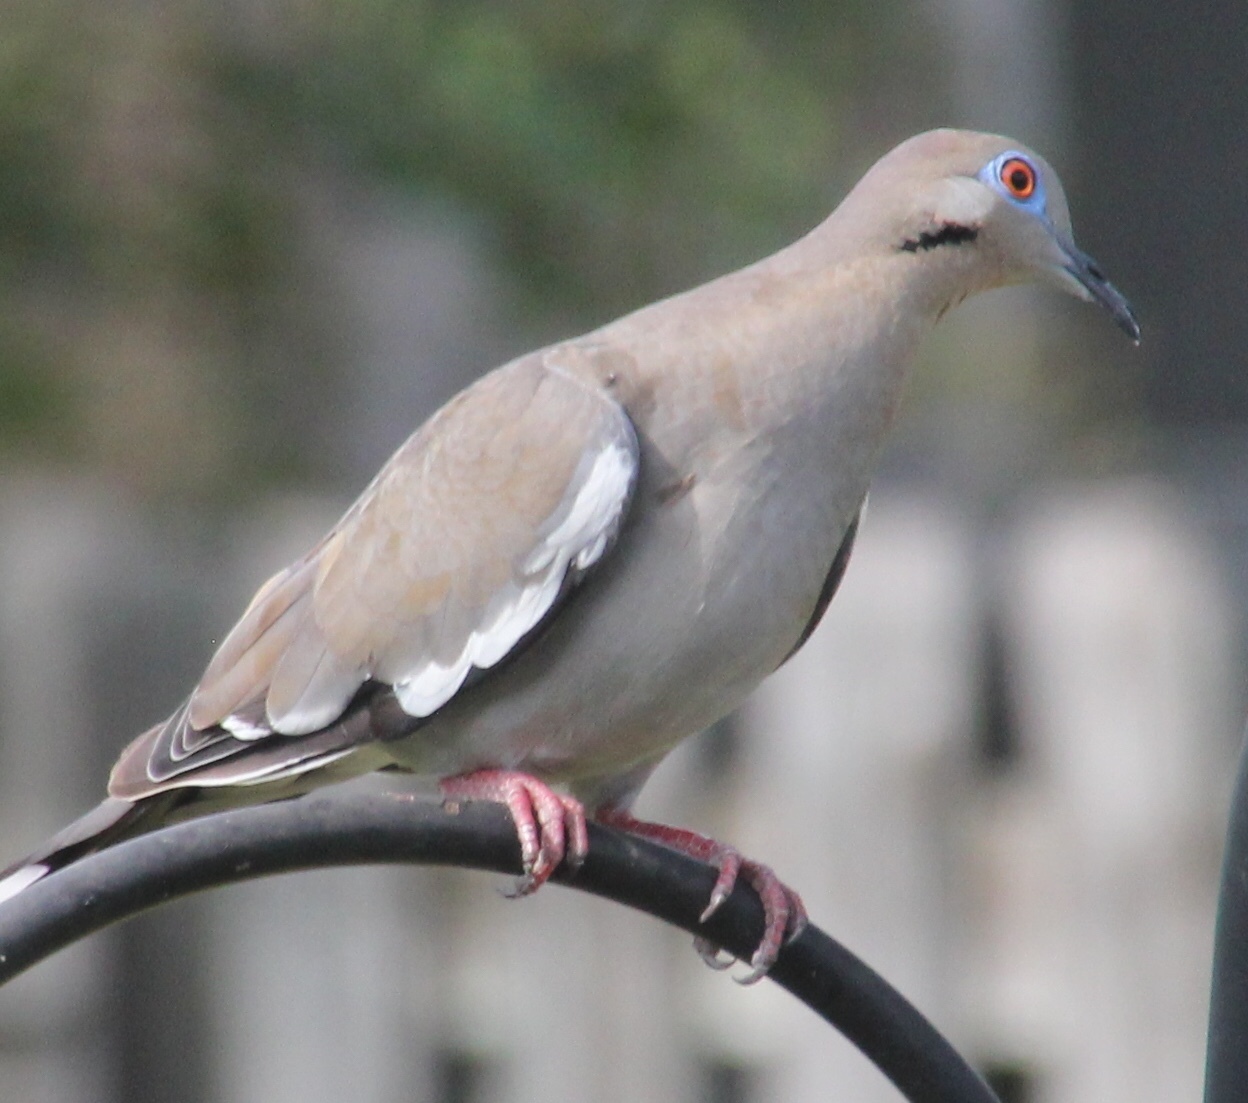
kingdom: Animalia
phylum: Chordata
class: Aves
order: Columbiformes
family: Columbidae
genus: Zenaida
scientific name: Zenaida asiatica
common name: White-winged dove
